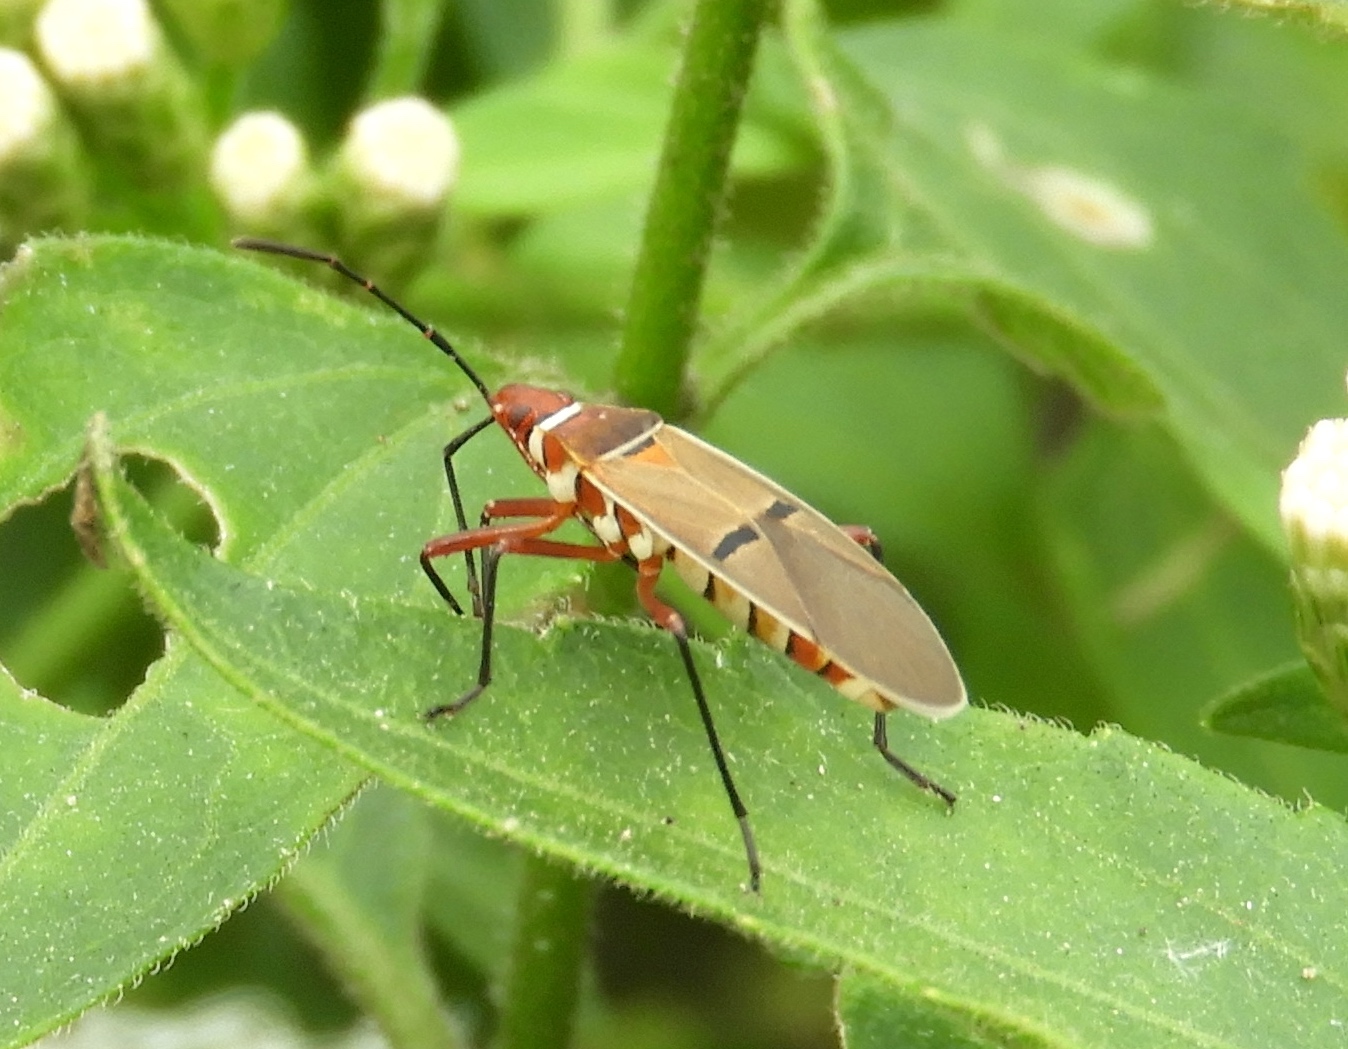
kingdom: Animalia
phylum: Arthropoda
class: Insecta
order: Hemiptera
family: Pyrrhocoridae
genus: Dysdercus
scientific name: Dysdercus
